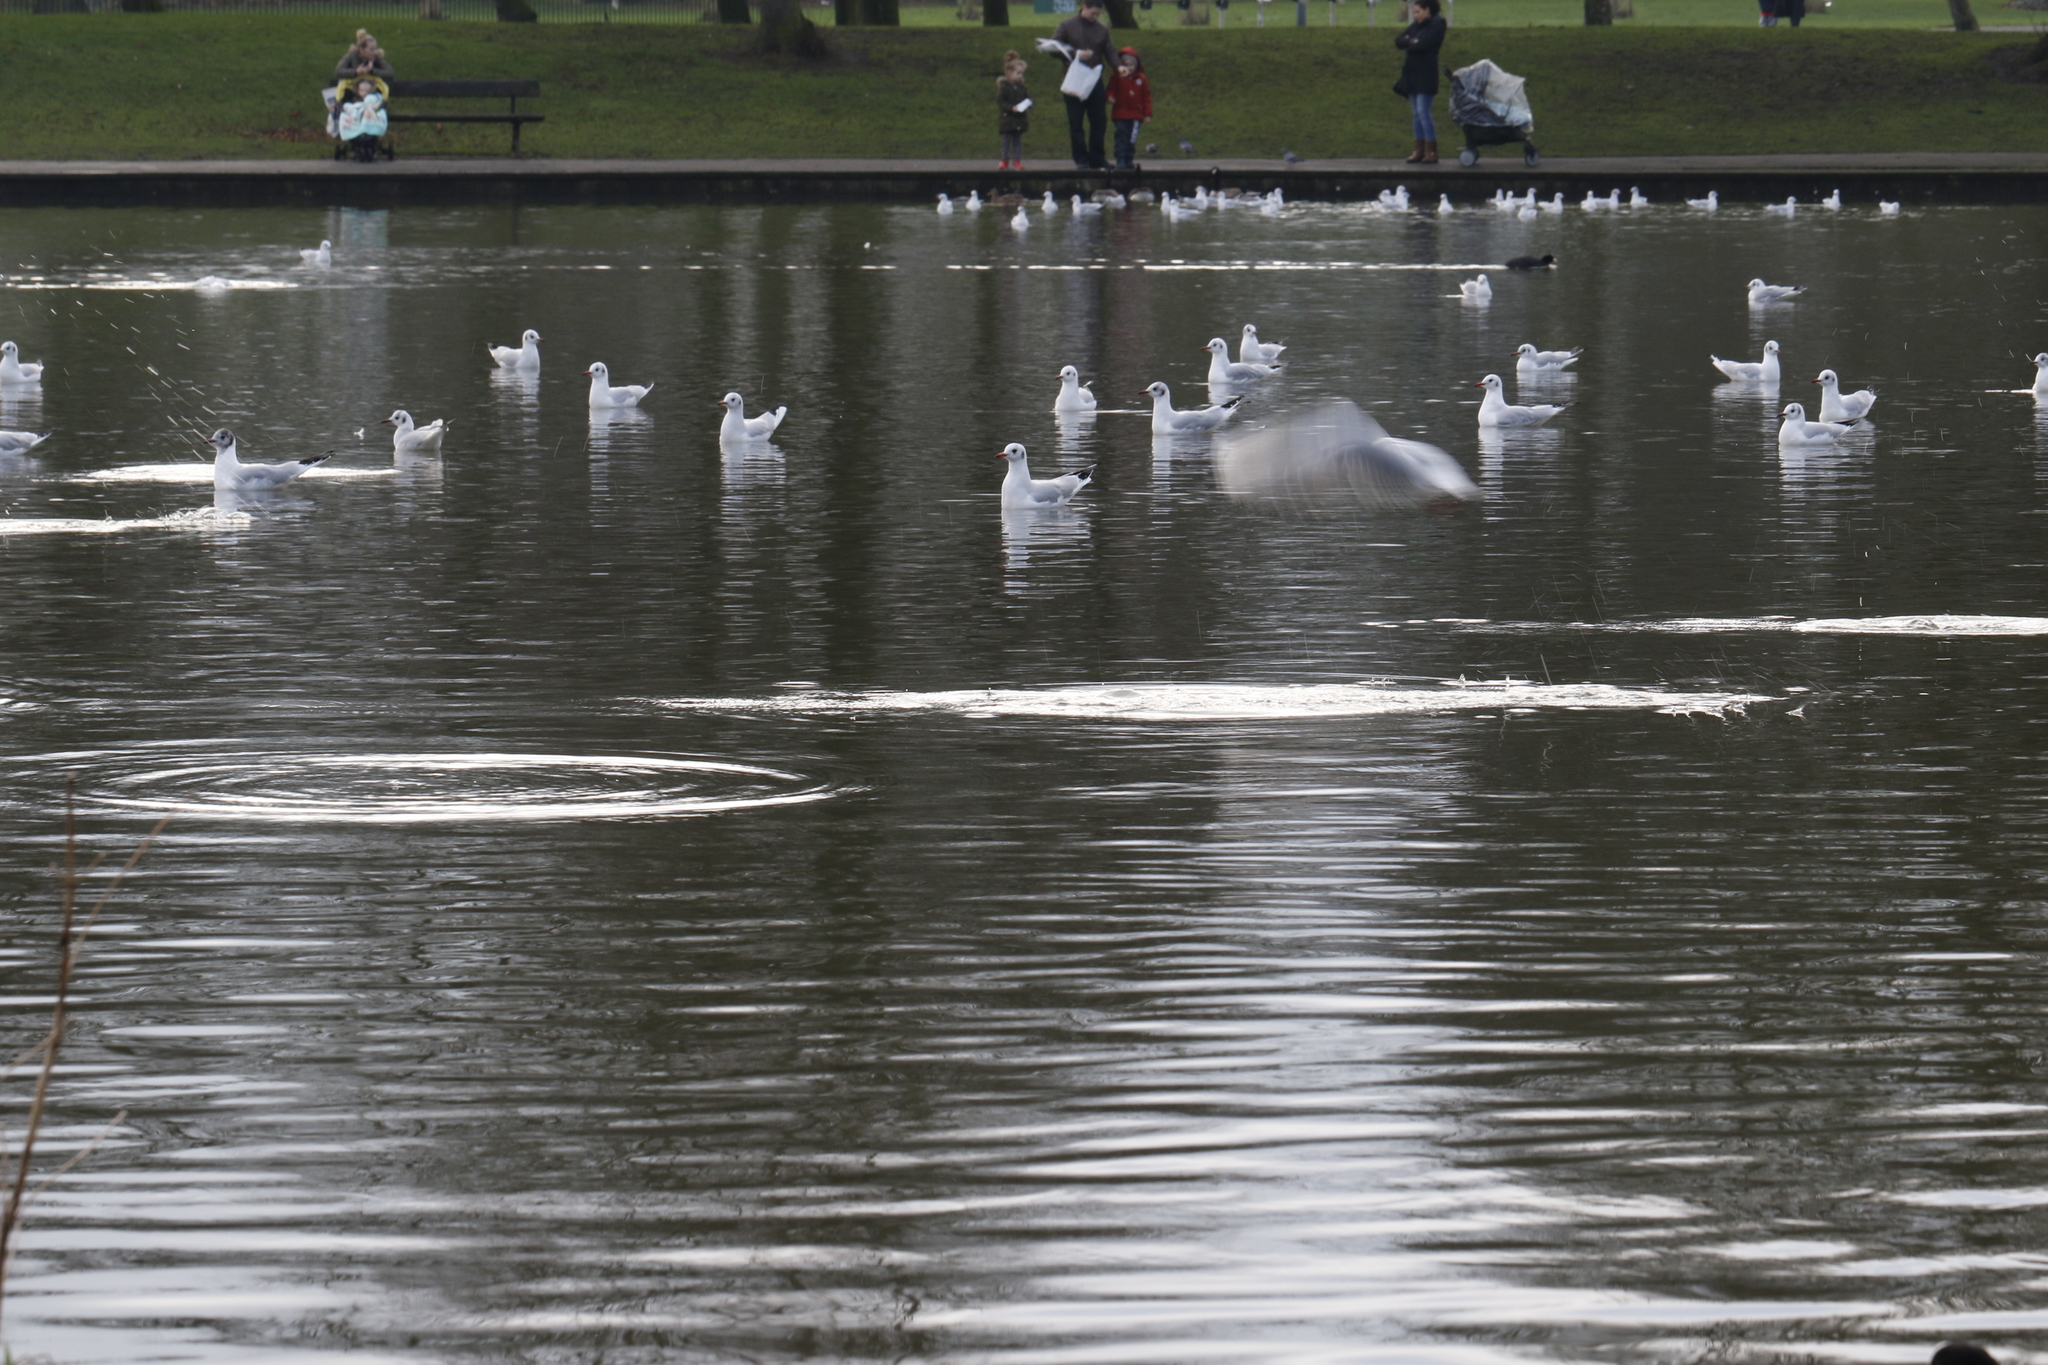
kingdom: Animalia
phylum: Chordata
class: Aves
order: Charadriiformes
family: Laridae
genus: Chroicocephalus
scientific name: Chroicocephalus ridibundus
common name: Black-headed gull
